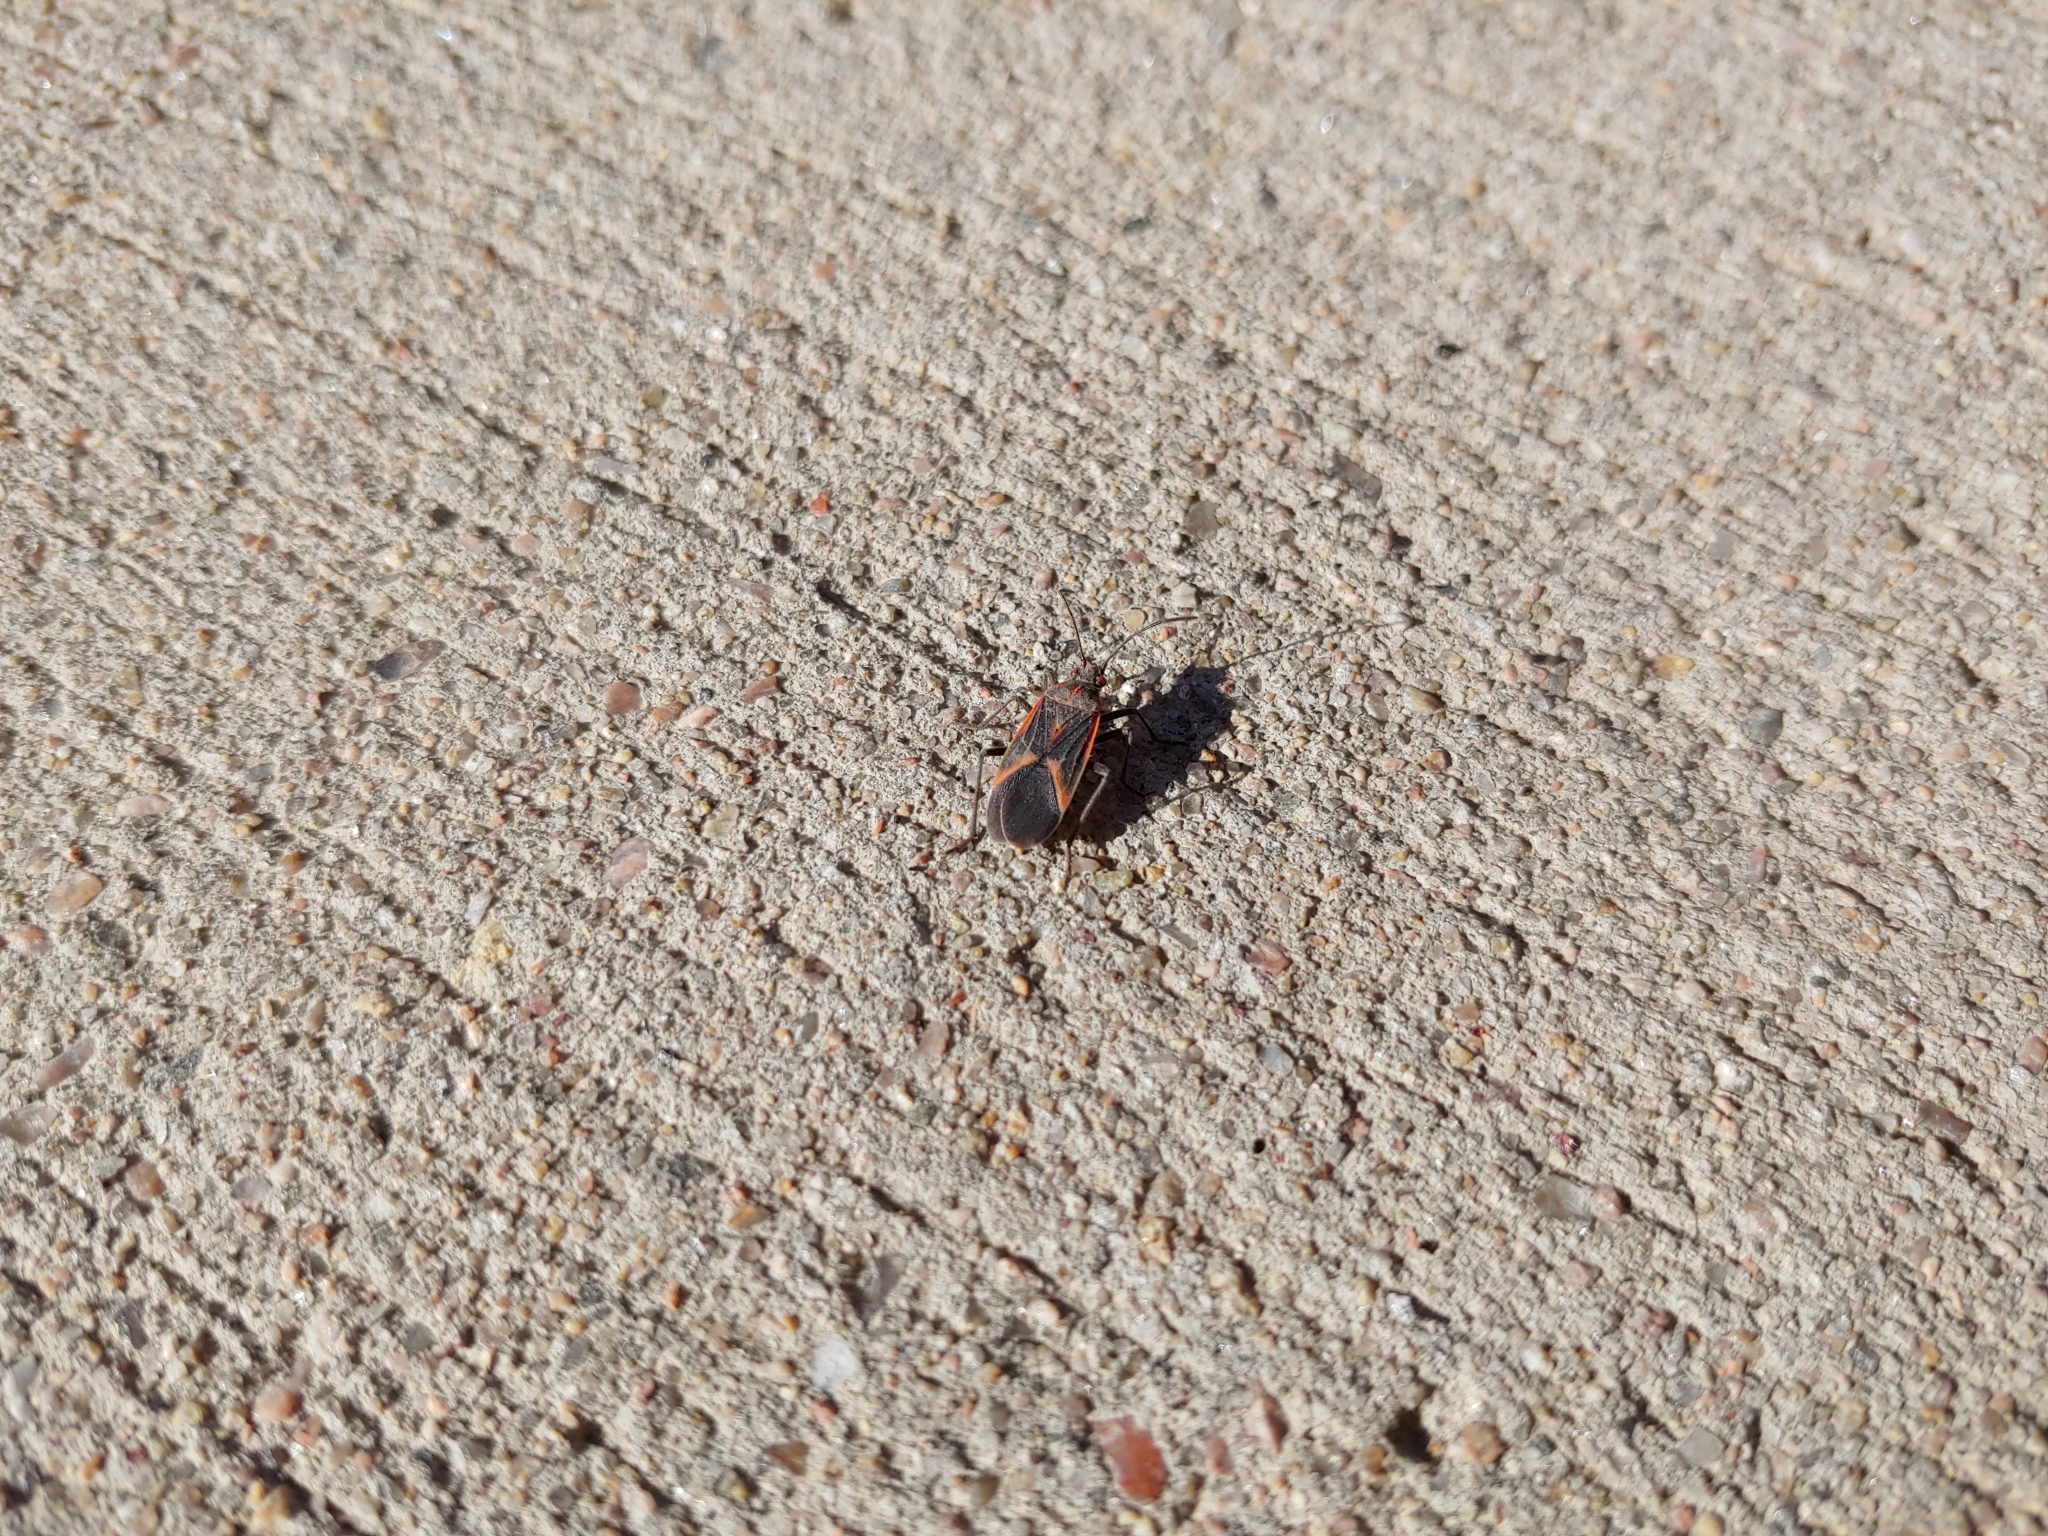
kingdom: Animalia
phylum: Arthropoda
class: Insecta
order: Hemiptera
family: Rhopalidae
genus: Boisea
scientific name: Boisea trivittata
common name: Boxelder bug
